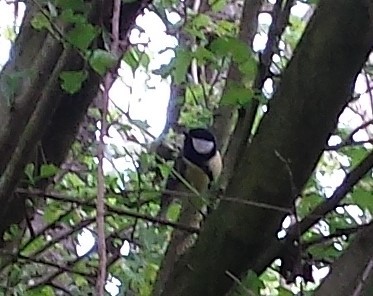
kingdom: Animalia
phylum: Chordata
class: Aves
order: Passeriformes
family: Paridae
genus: Parus
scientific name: Parus major
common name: Great tit
